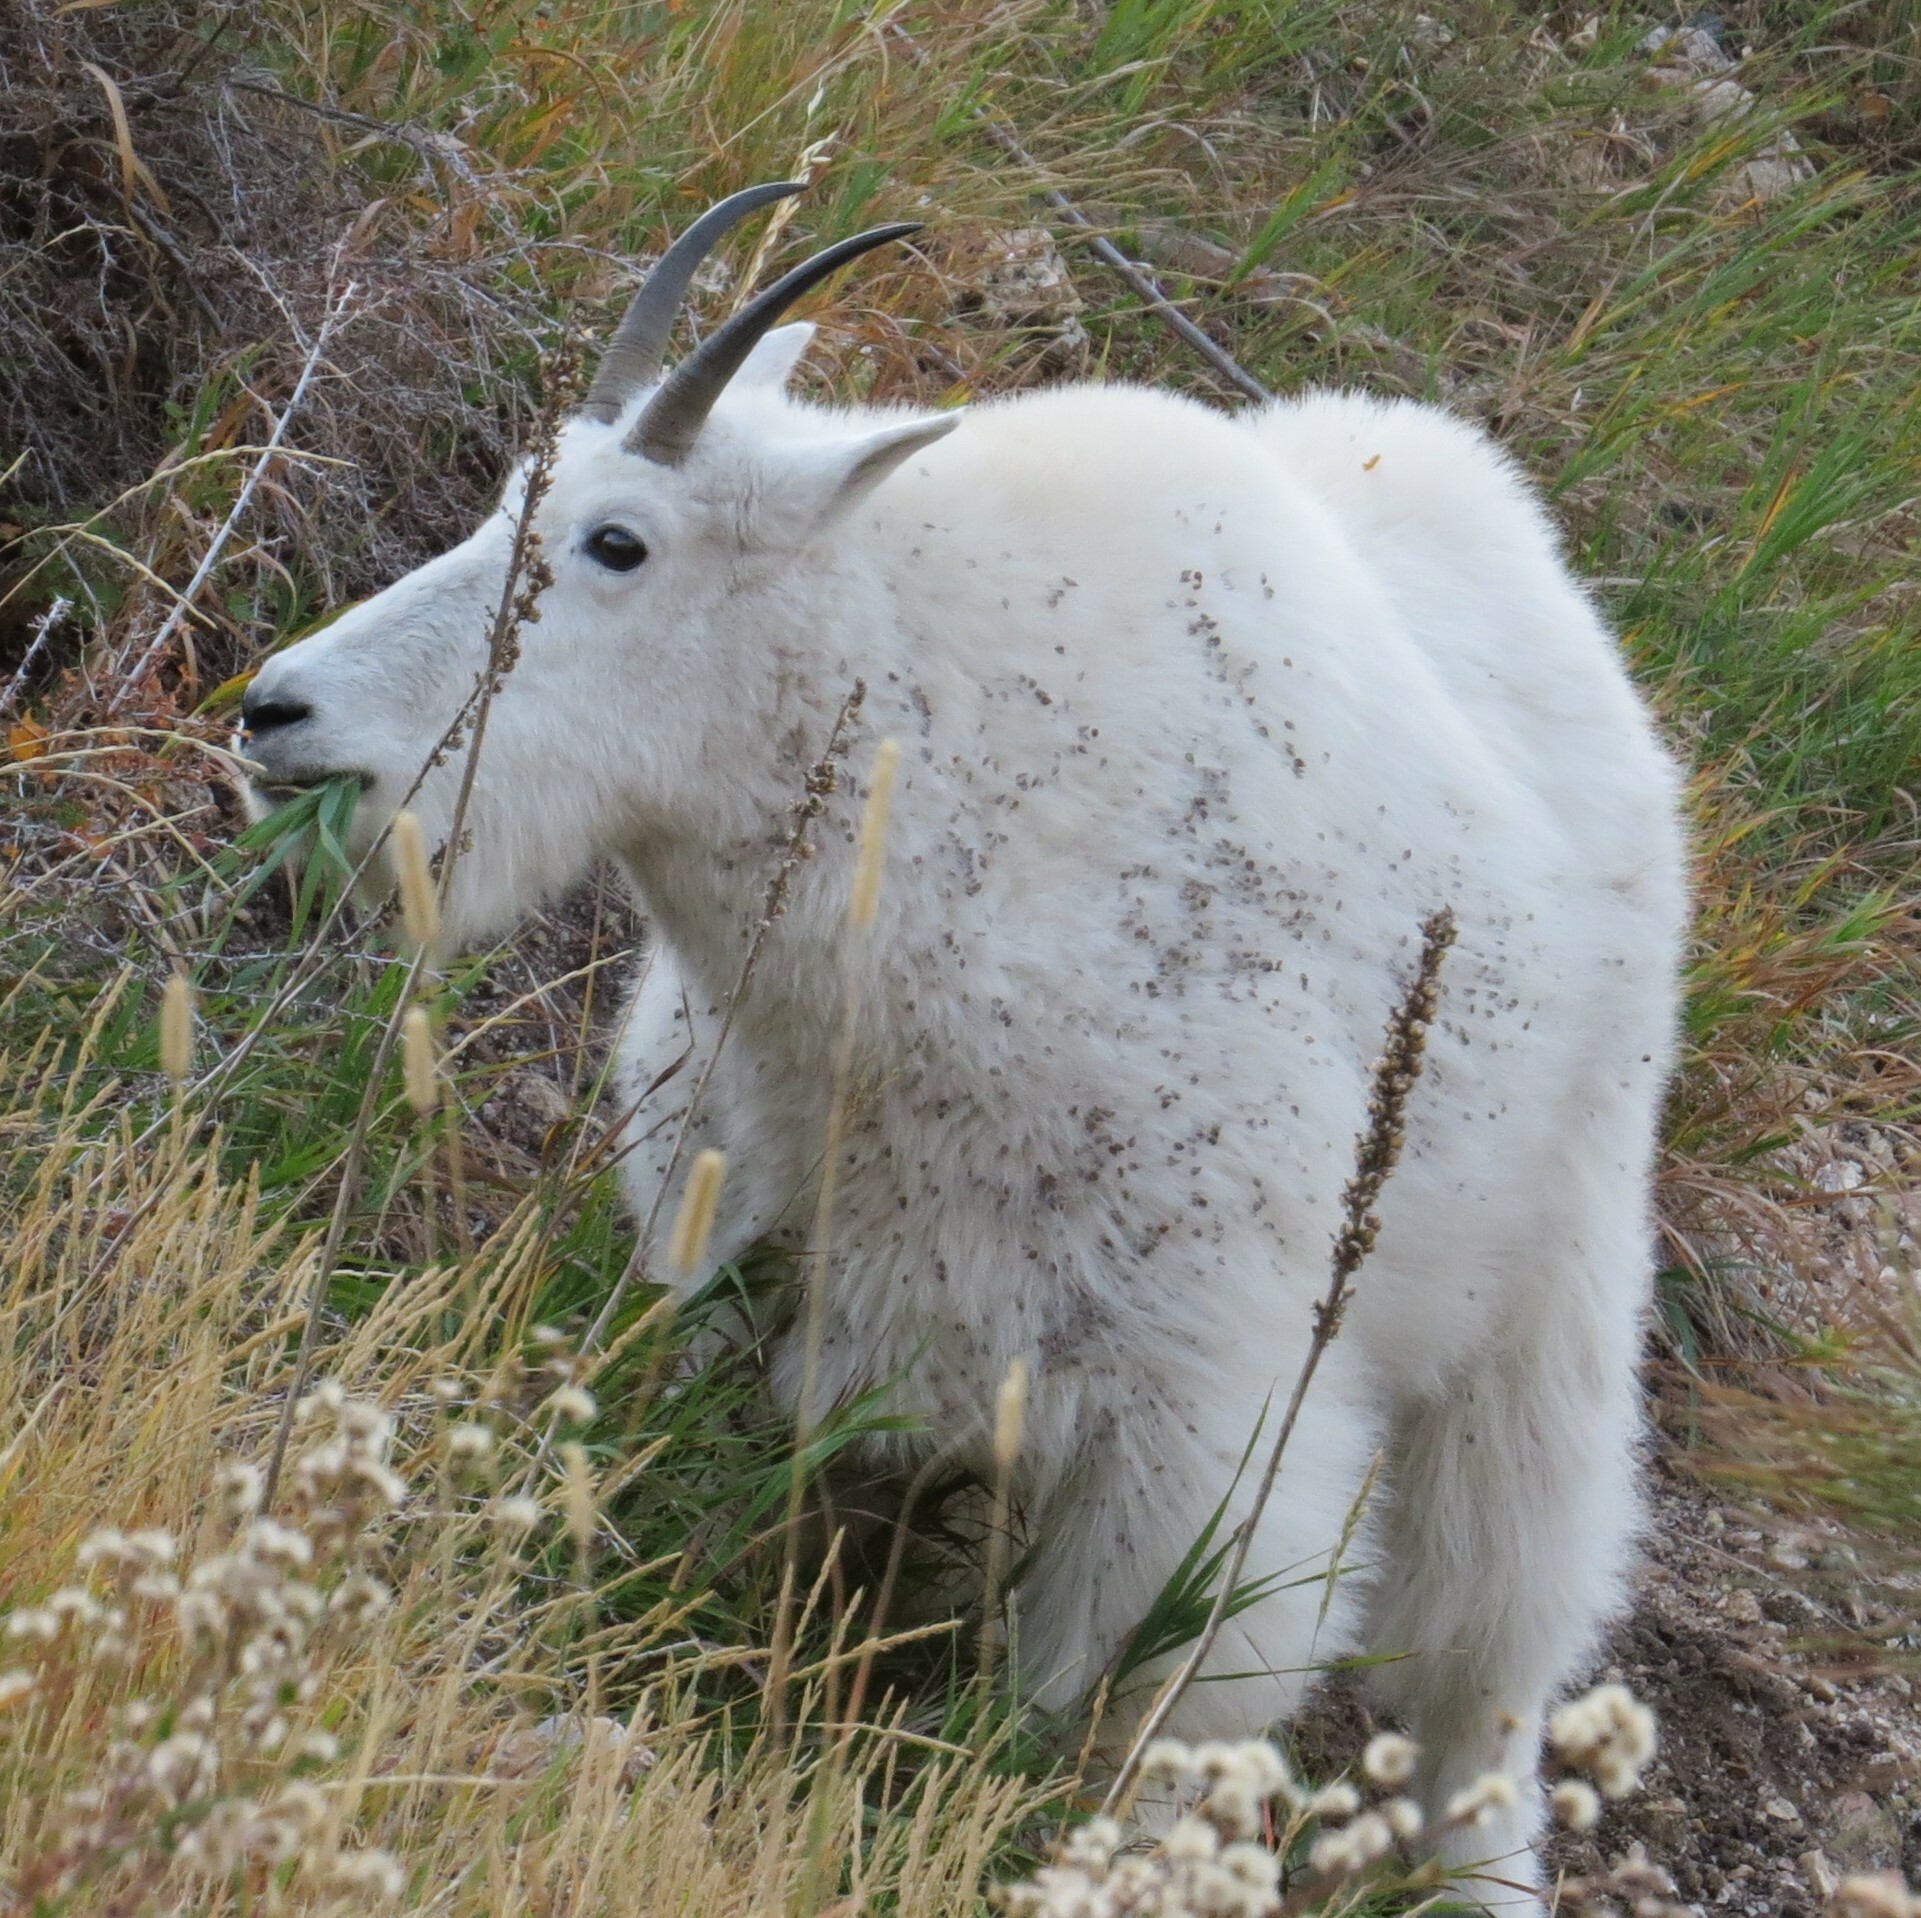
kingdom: Animalia
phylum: Chordata
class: Mammalia
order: Artiodactyla
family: Bovidae
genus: Oreamnos
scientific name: Oreamnos americanus
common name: Mountain goat
